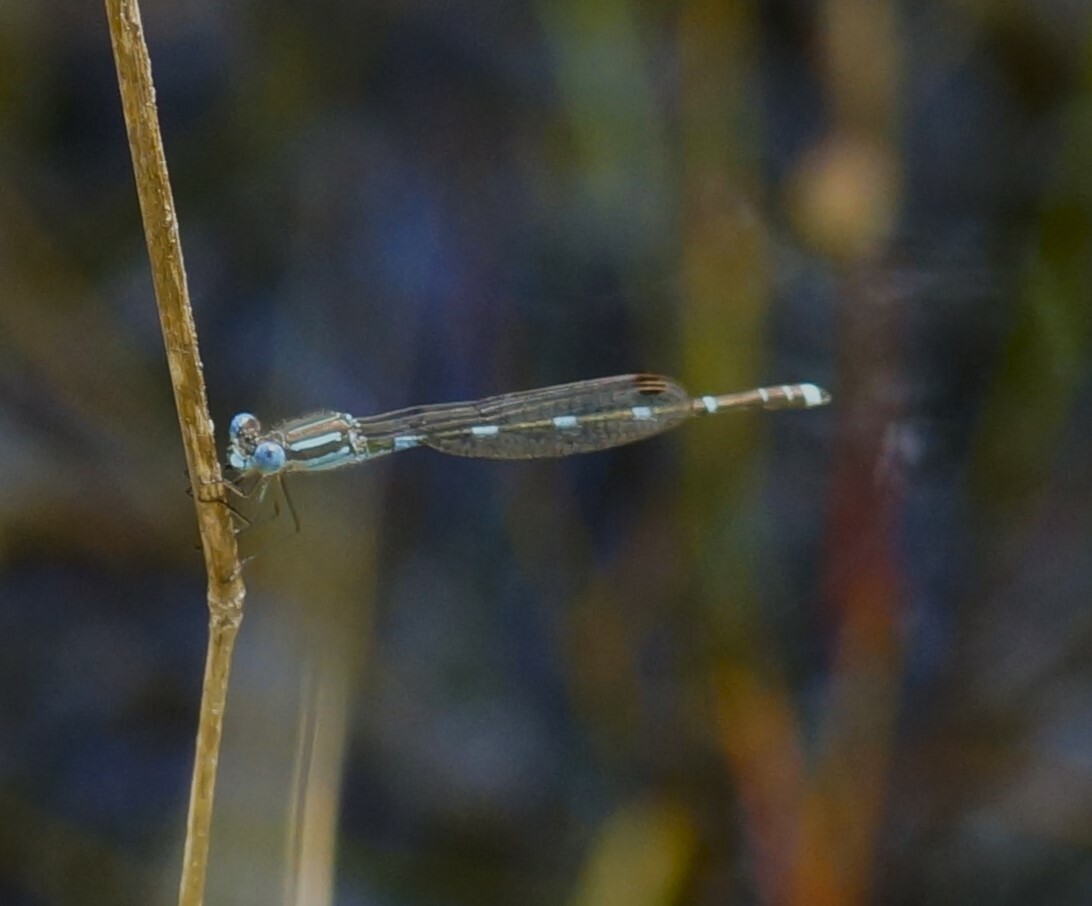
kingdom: Animalia
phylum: Arthropoda
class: Insecta
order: Odonata
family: Lestidae
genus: Austrolestes
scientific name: Austrolestes leda
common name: Wandering ringtail
